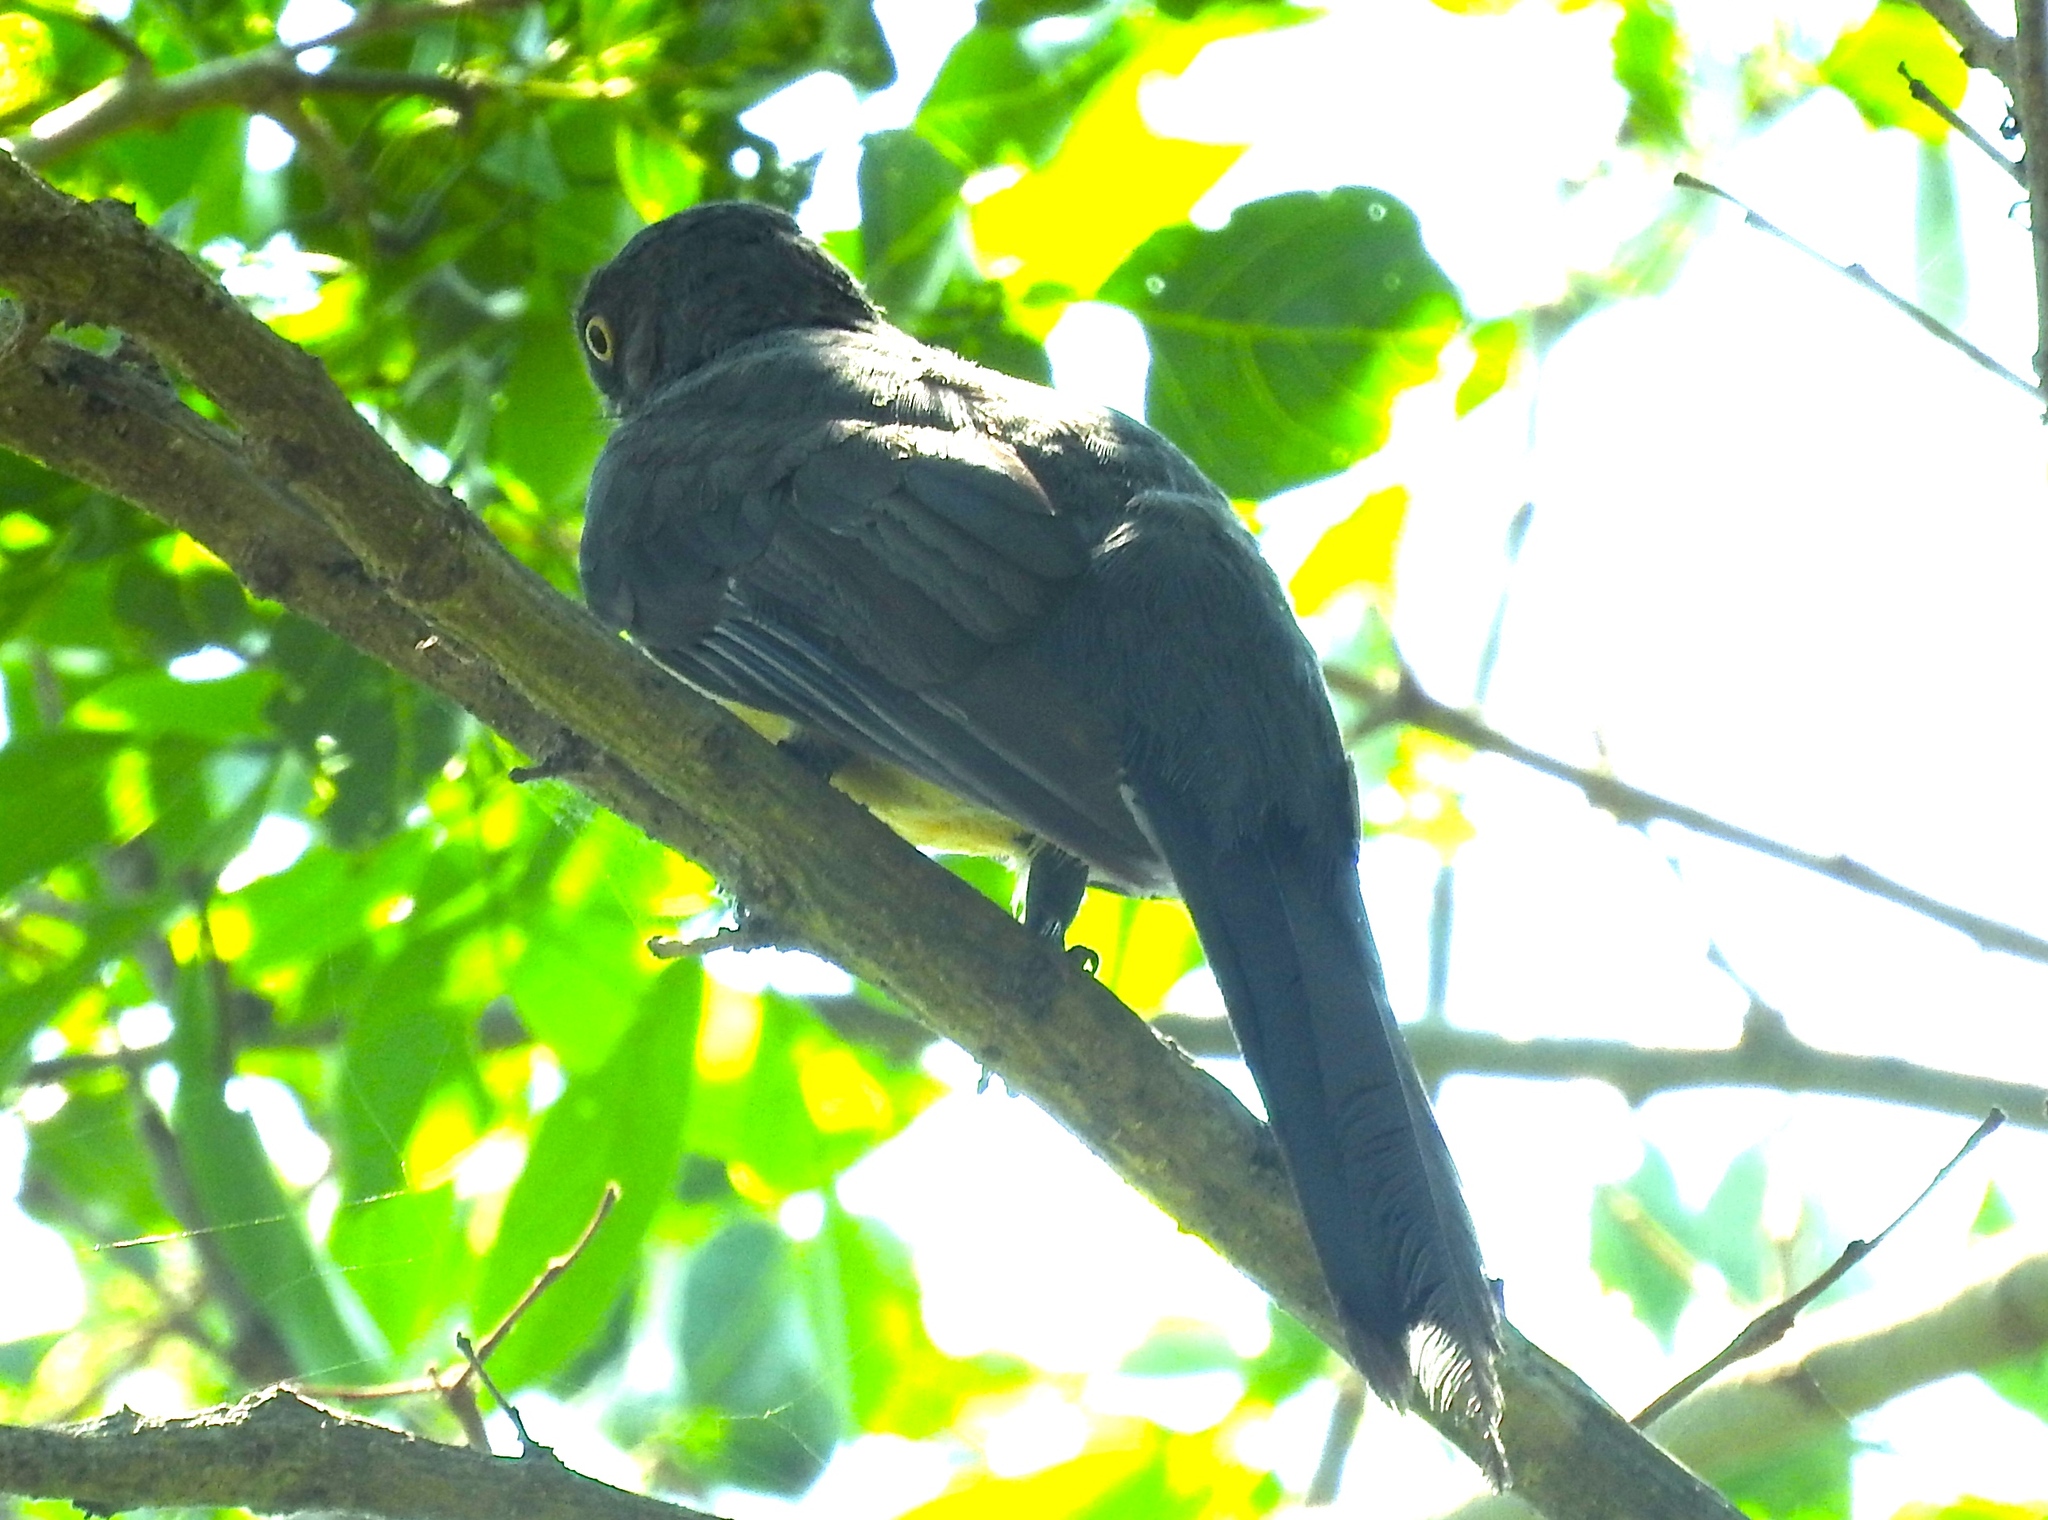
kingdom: Animalia
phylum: Chordata
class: Aves
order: Trogoniformes
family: Trogonidae
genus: Trogon
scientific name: Trogon citreolus
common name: Citreoline trogon
